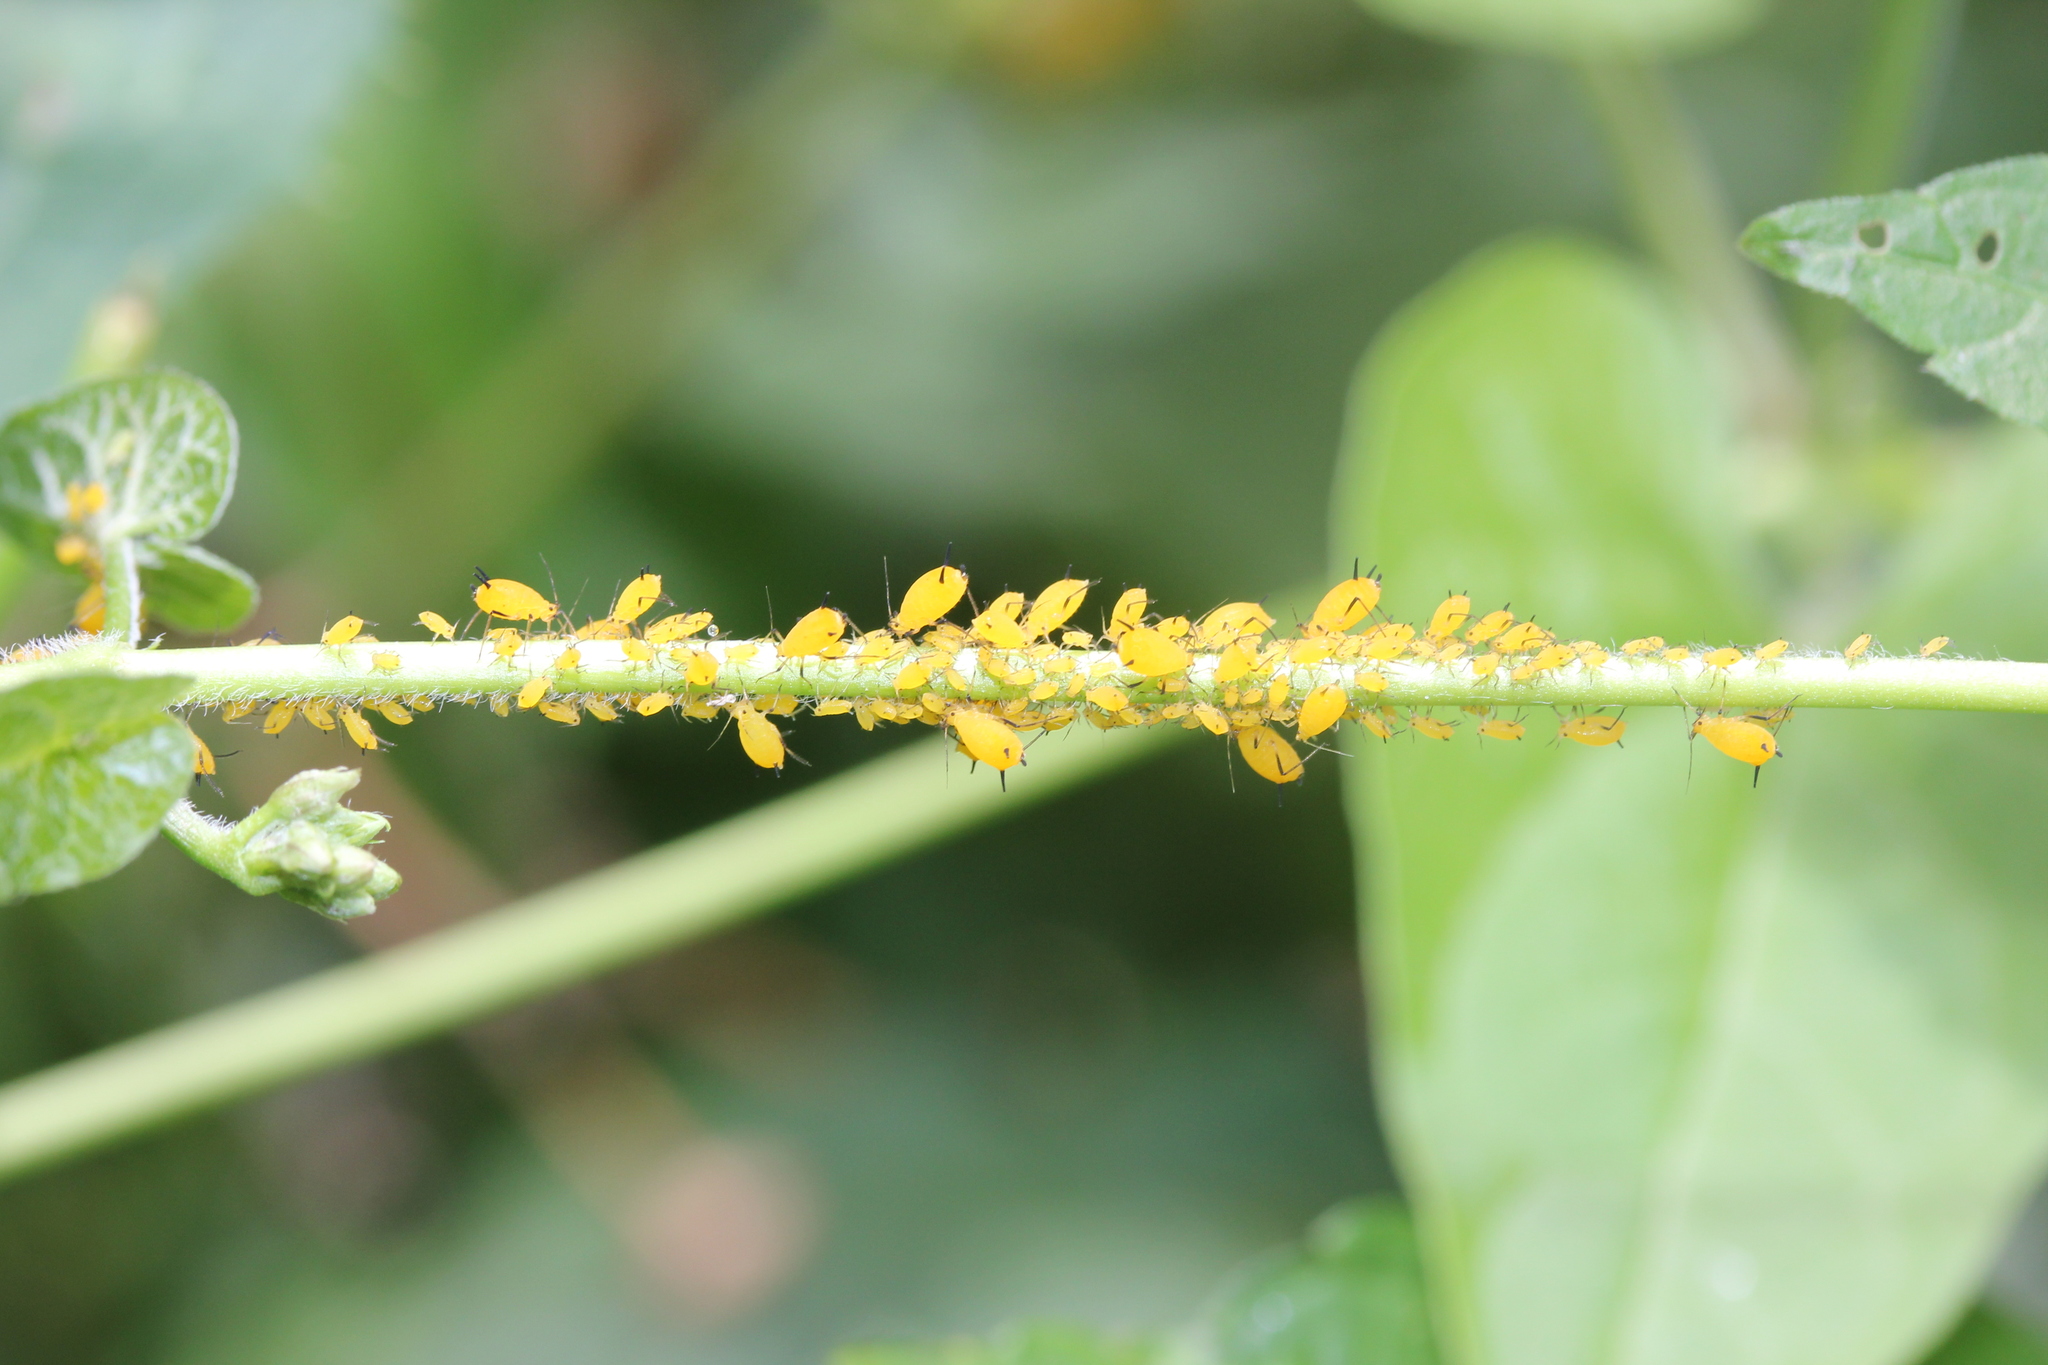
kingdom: Animalia
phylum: Arthropoda
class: Insecta
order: Hemiptera
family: Aphididae
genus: Aphis
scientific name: Aphis nerii
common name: Oleander aphid
